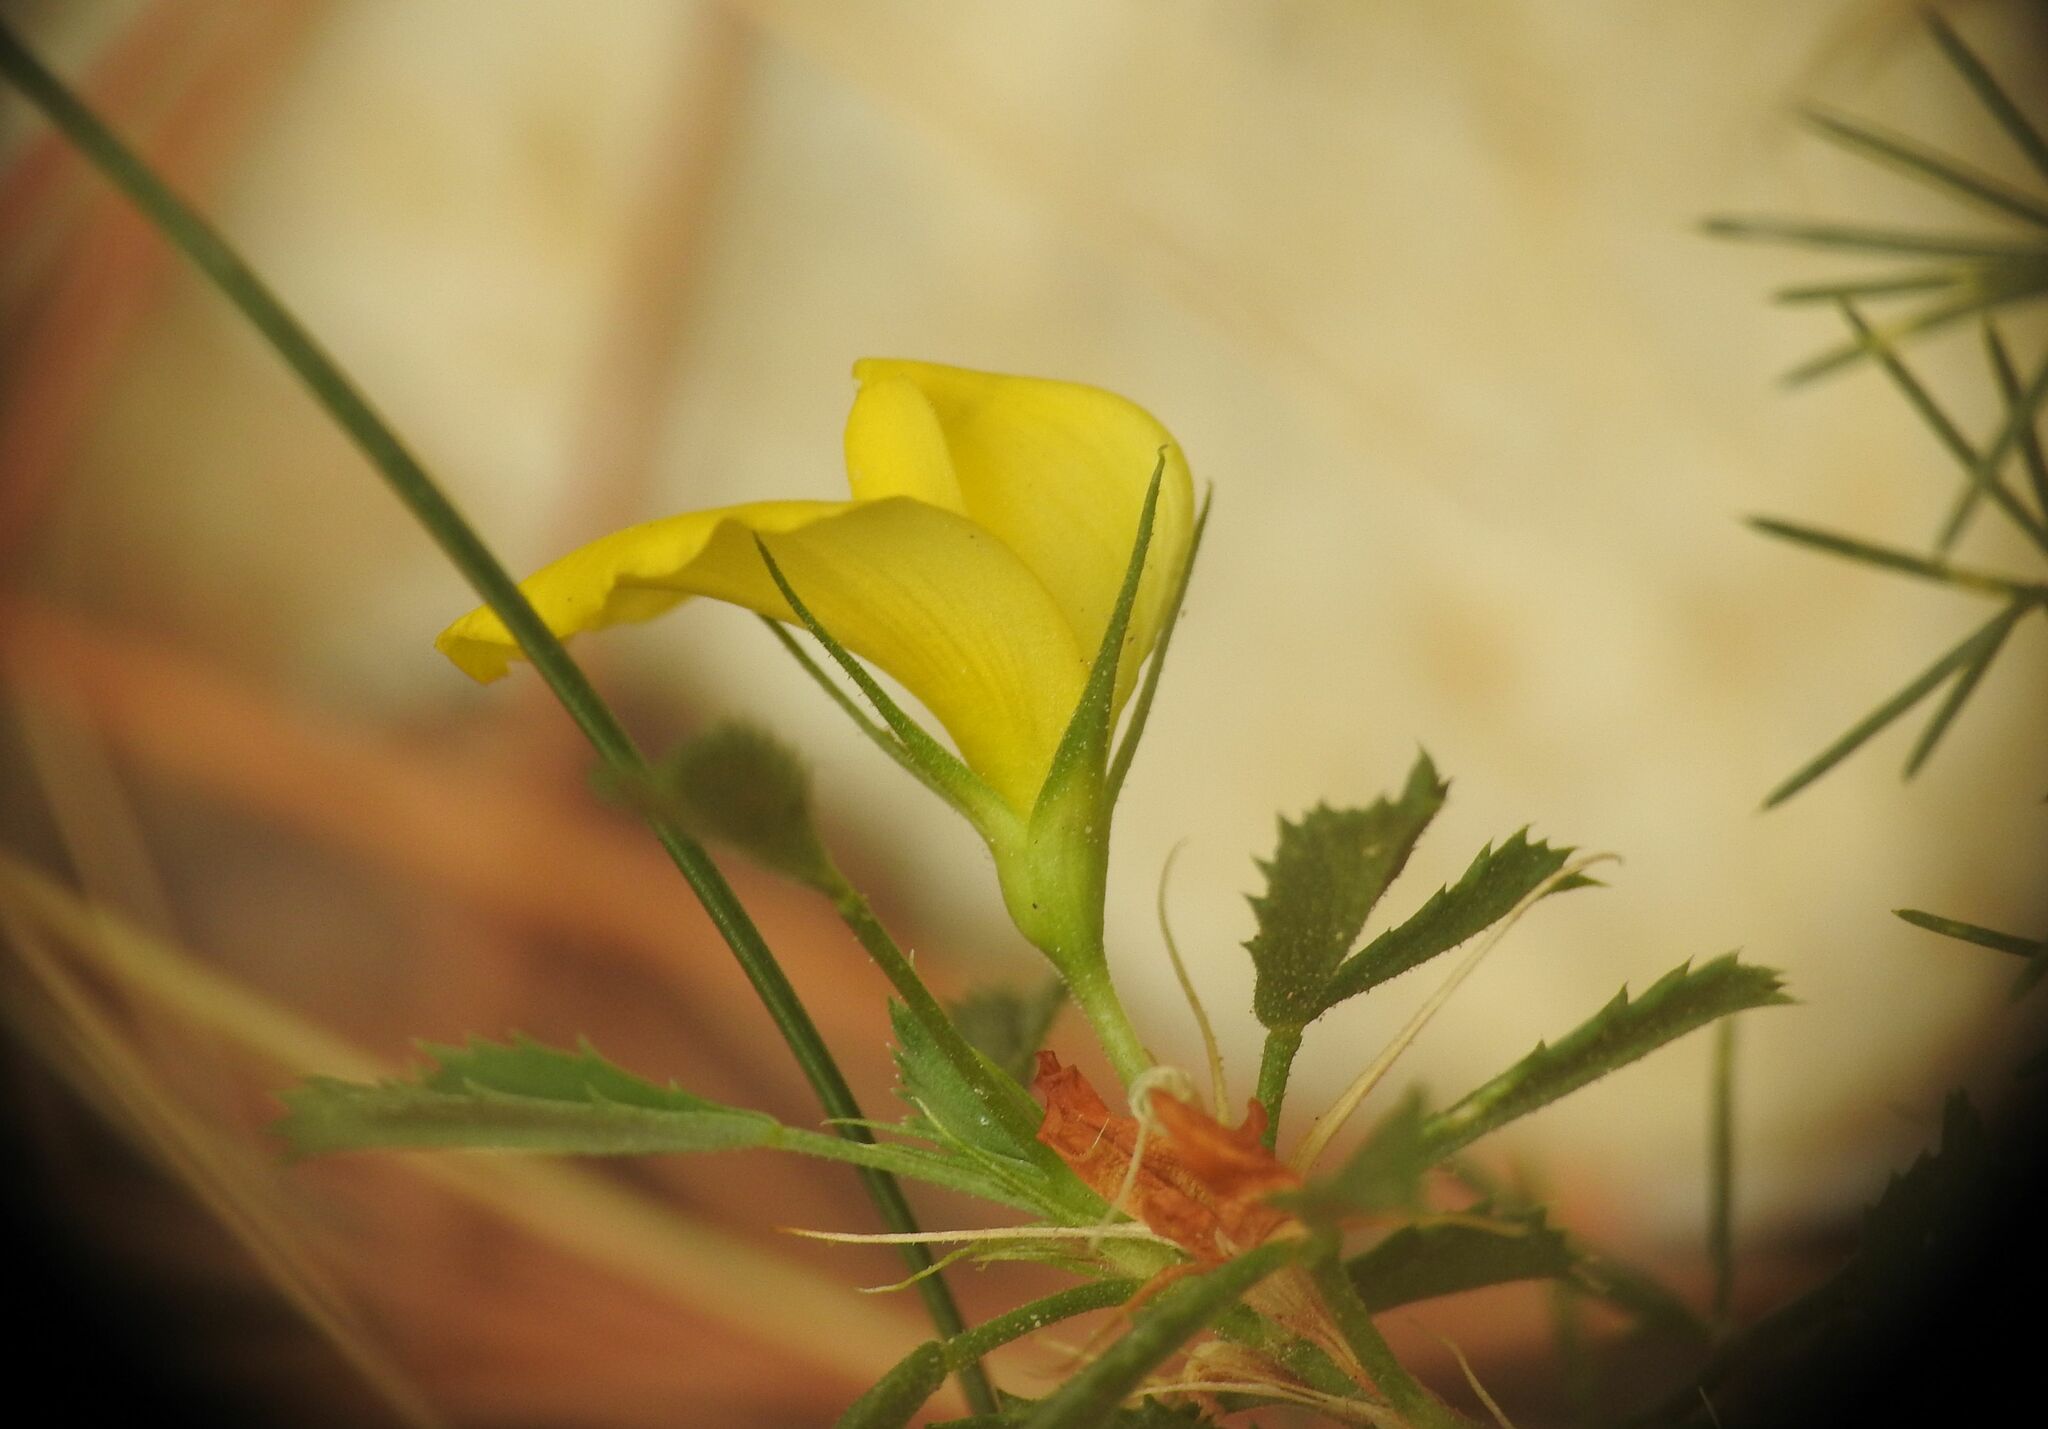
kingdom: Plantae
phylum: Tracheophyta
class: Magnoliopsida
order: Fabales
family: Fabaceae
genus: Ononis
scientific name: Ononis minutissima
